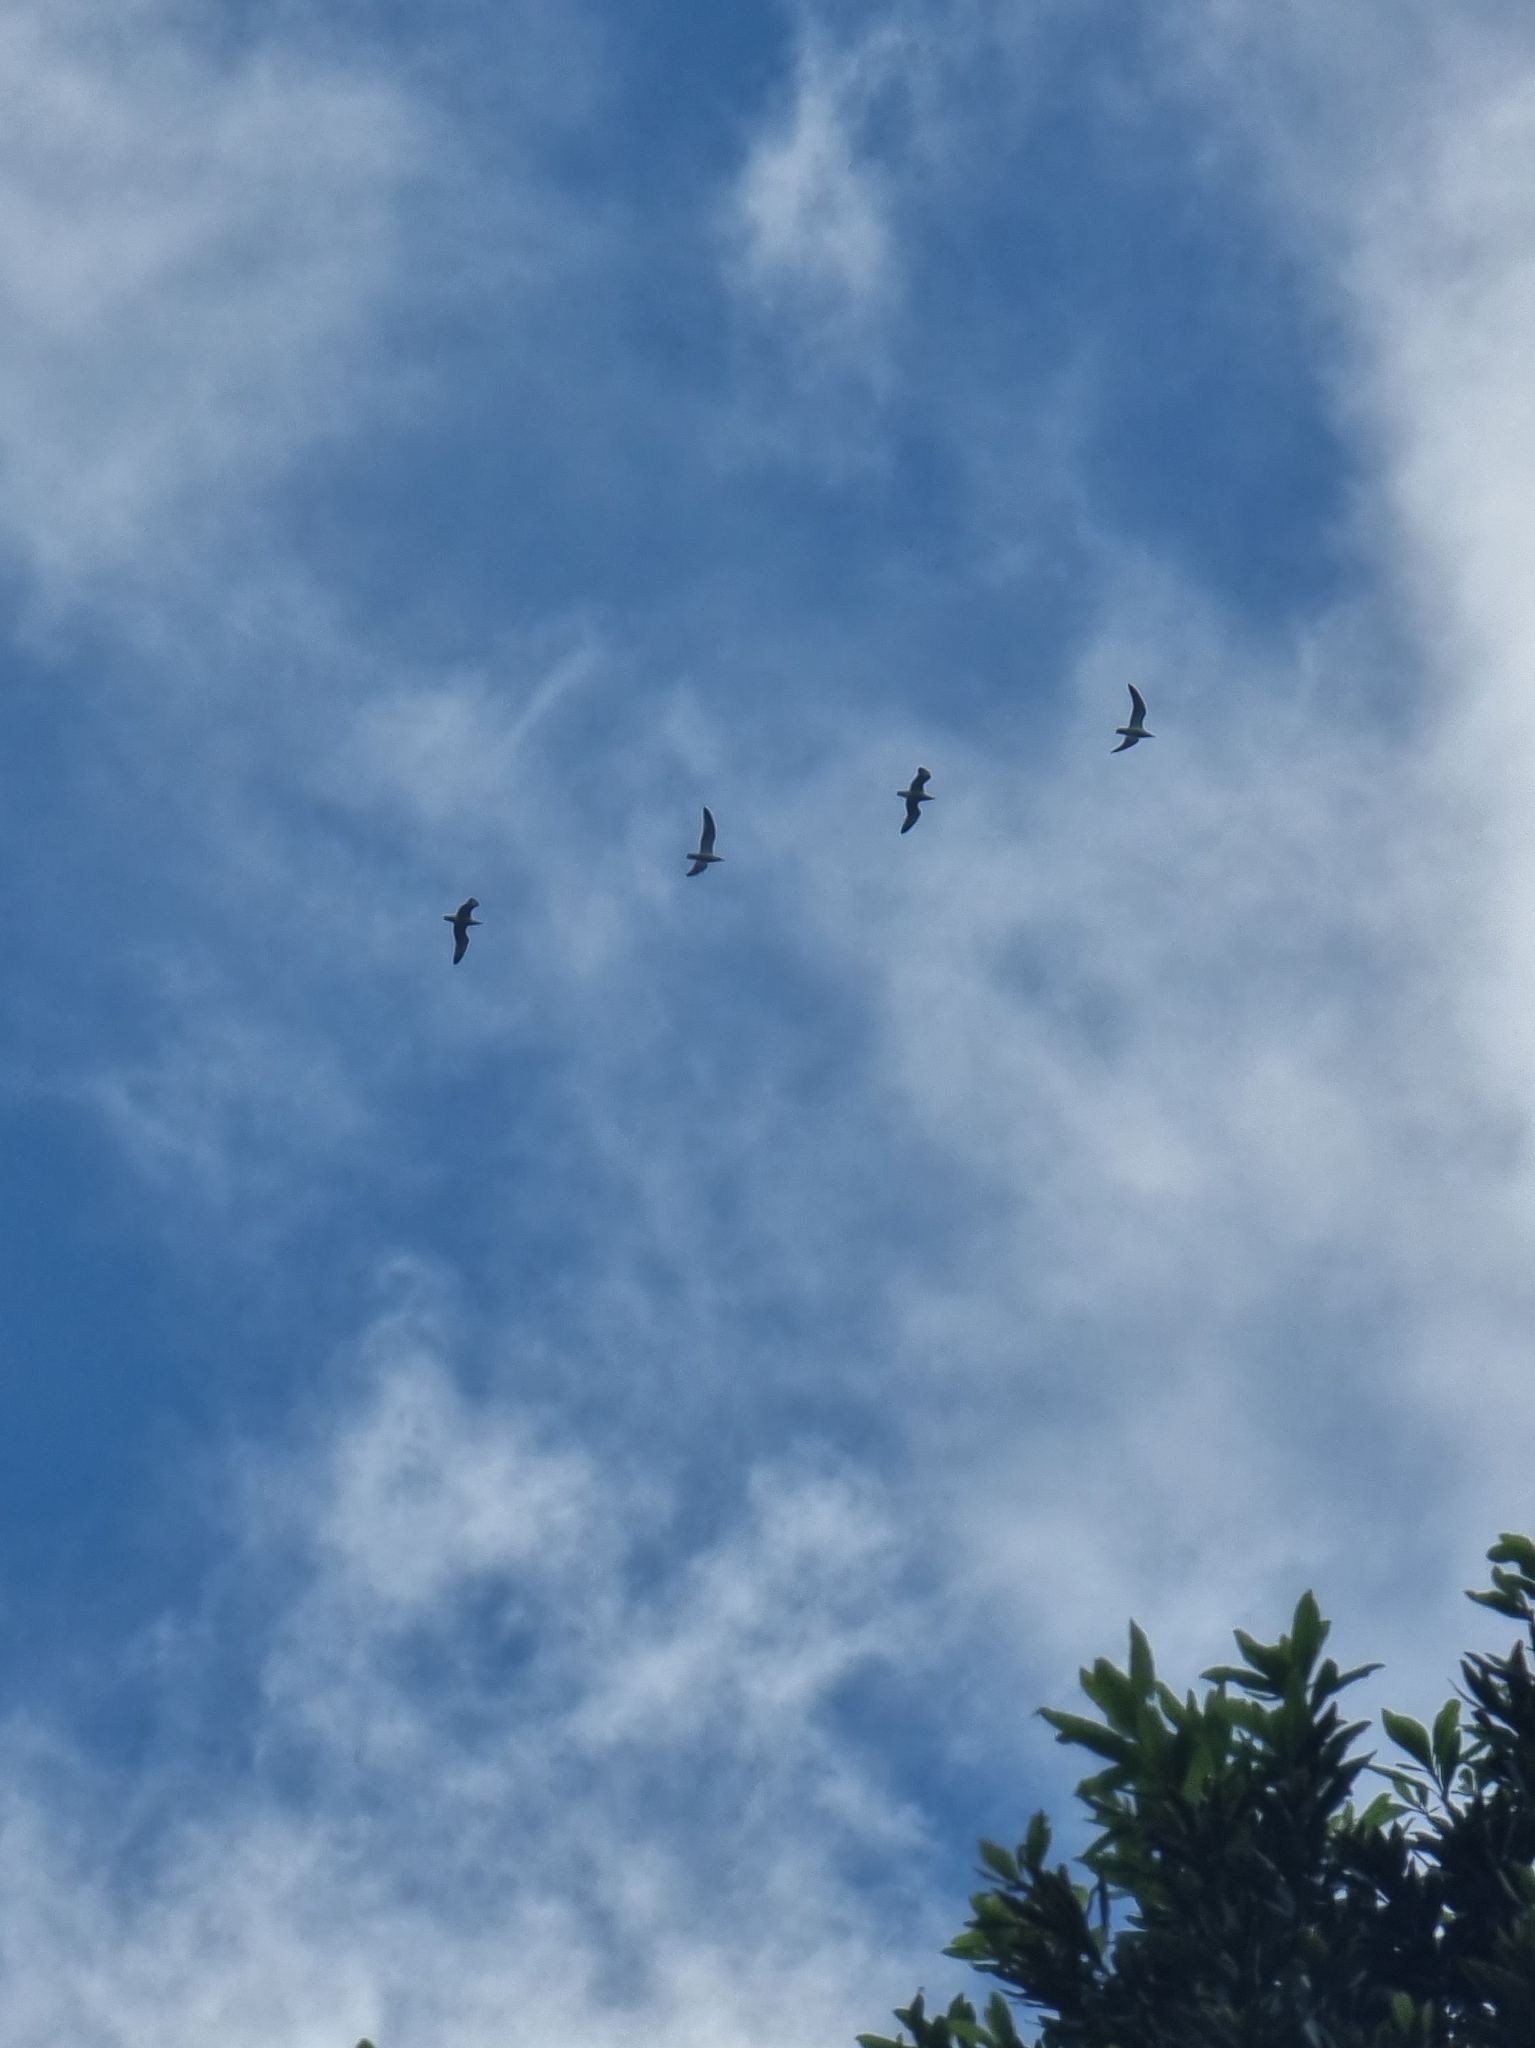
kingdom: Animalia
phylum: Chordata
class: Aves
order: Charadriiformes
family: Laridae
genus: Larus
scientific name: Larus michahellis
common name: Yellow-legged gull
